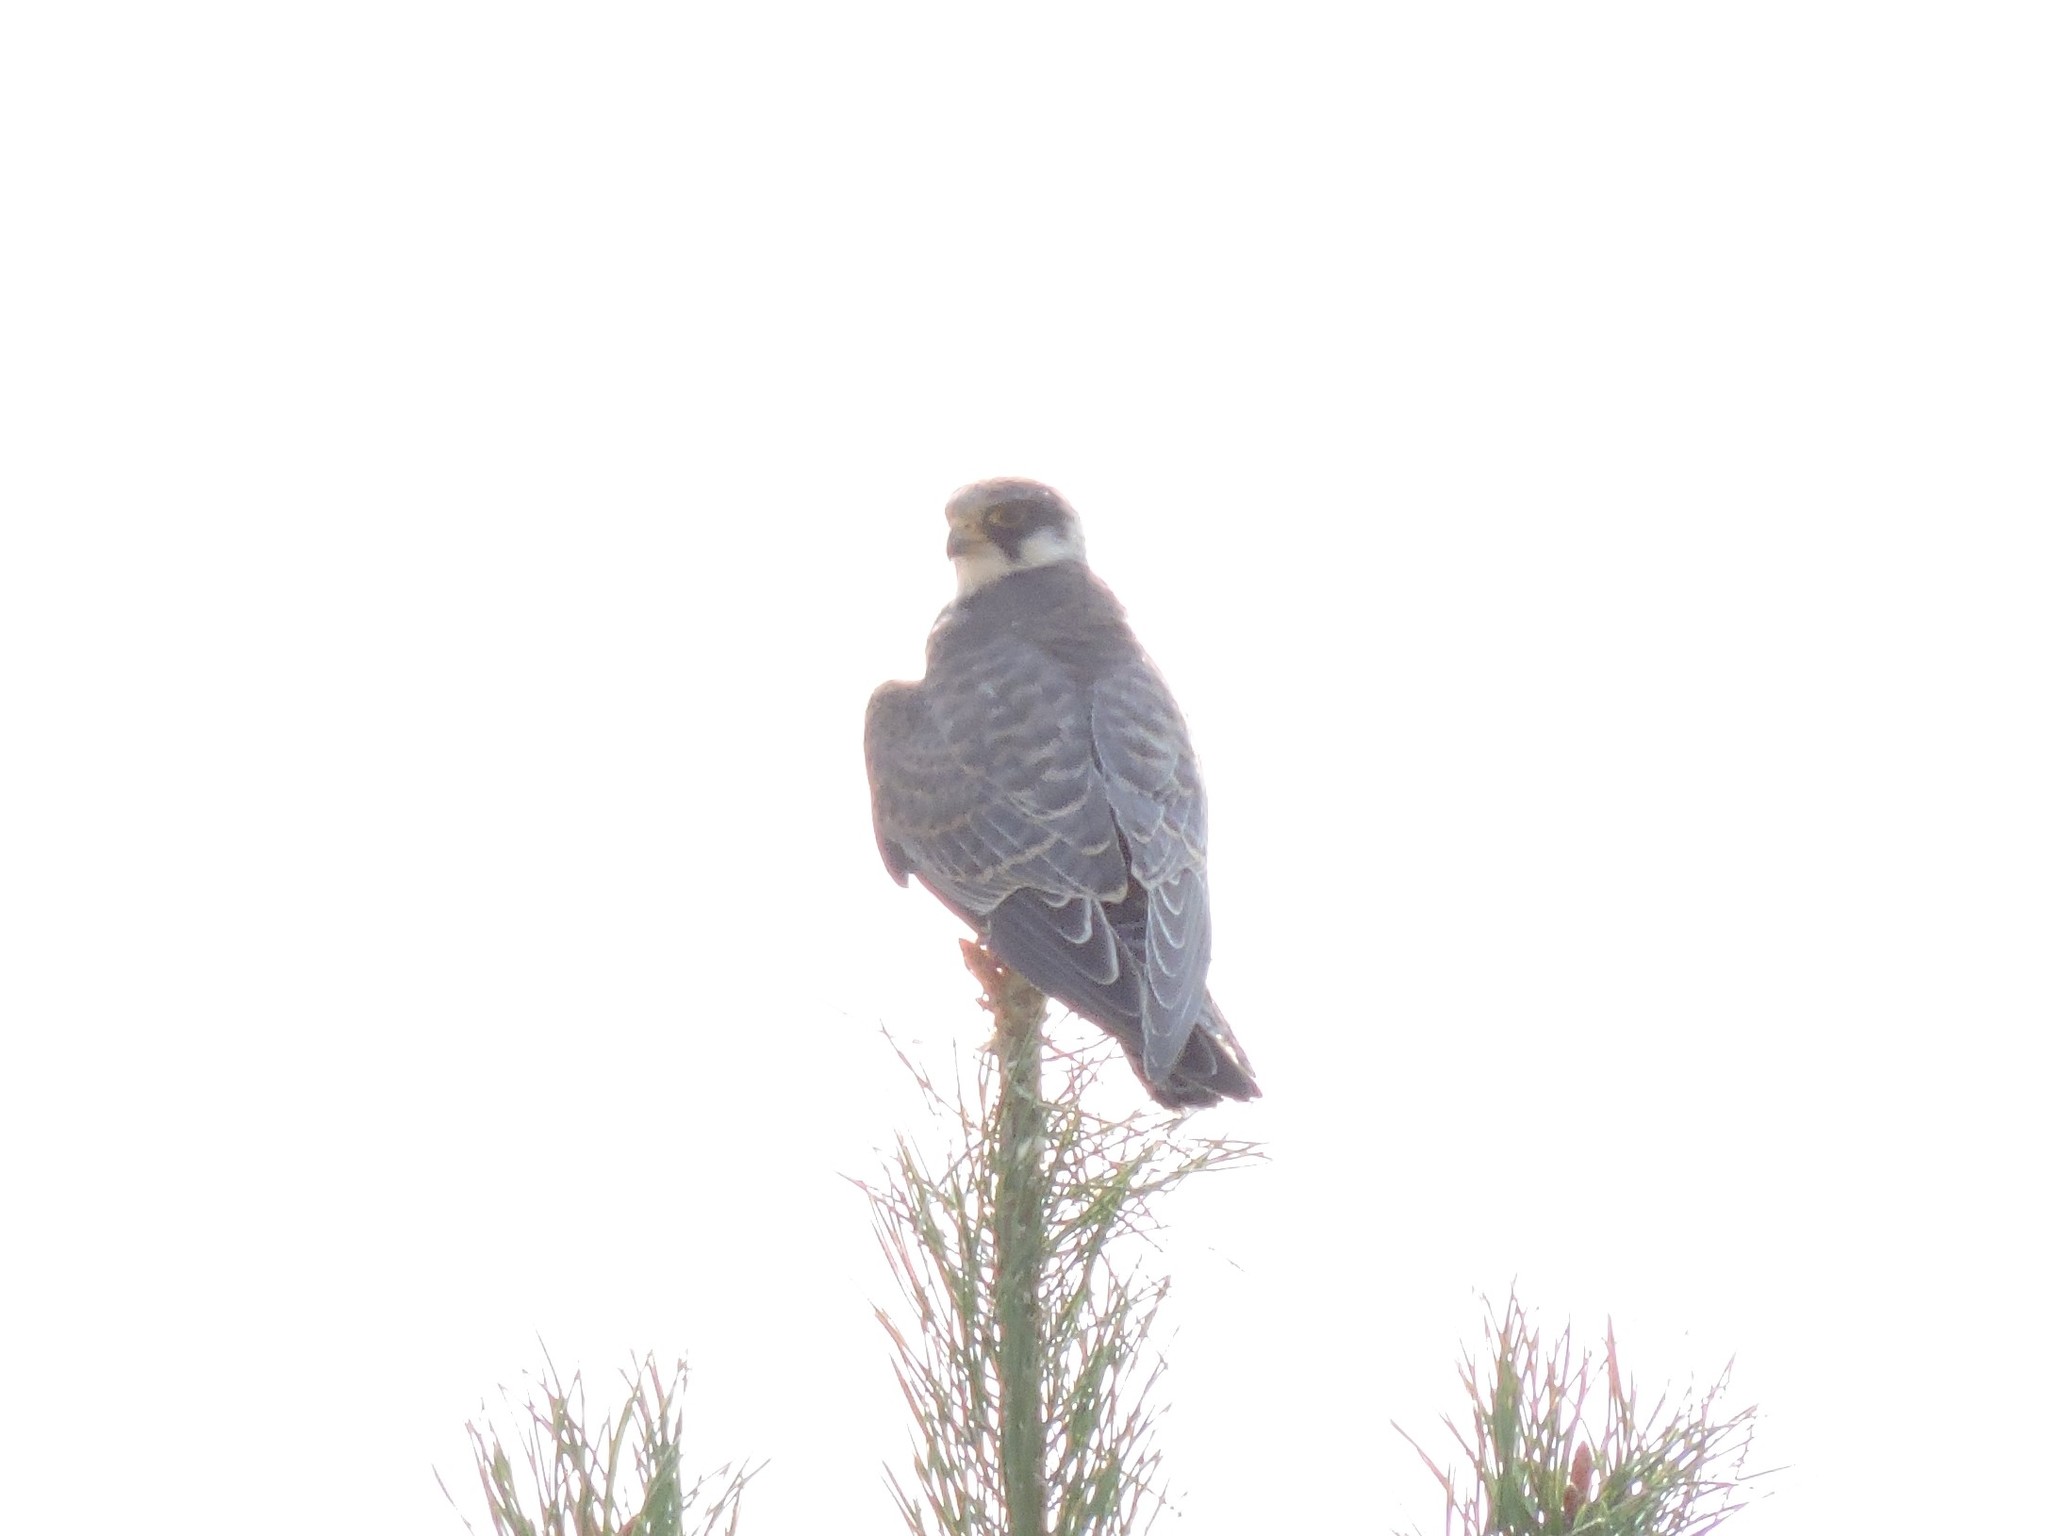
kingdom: Animalia
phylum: Chordata
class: Aves
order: Falconiformes
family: Falconidae
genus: Falco
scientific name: Falco subbuteo
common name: Eurasian hobby
